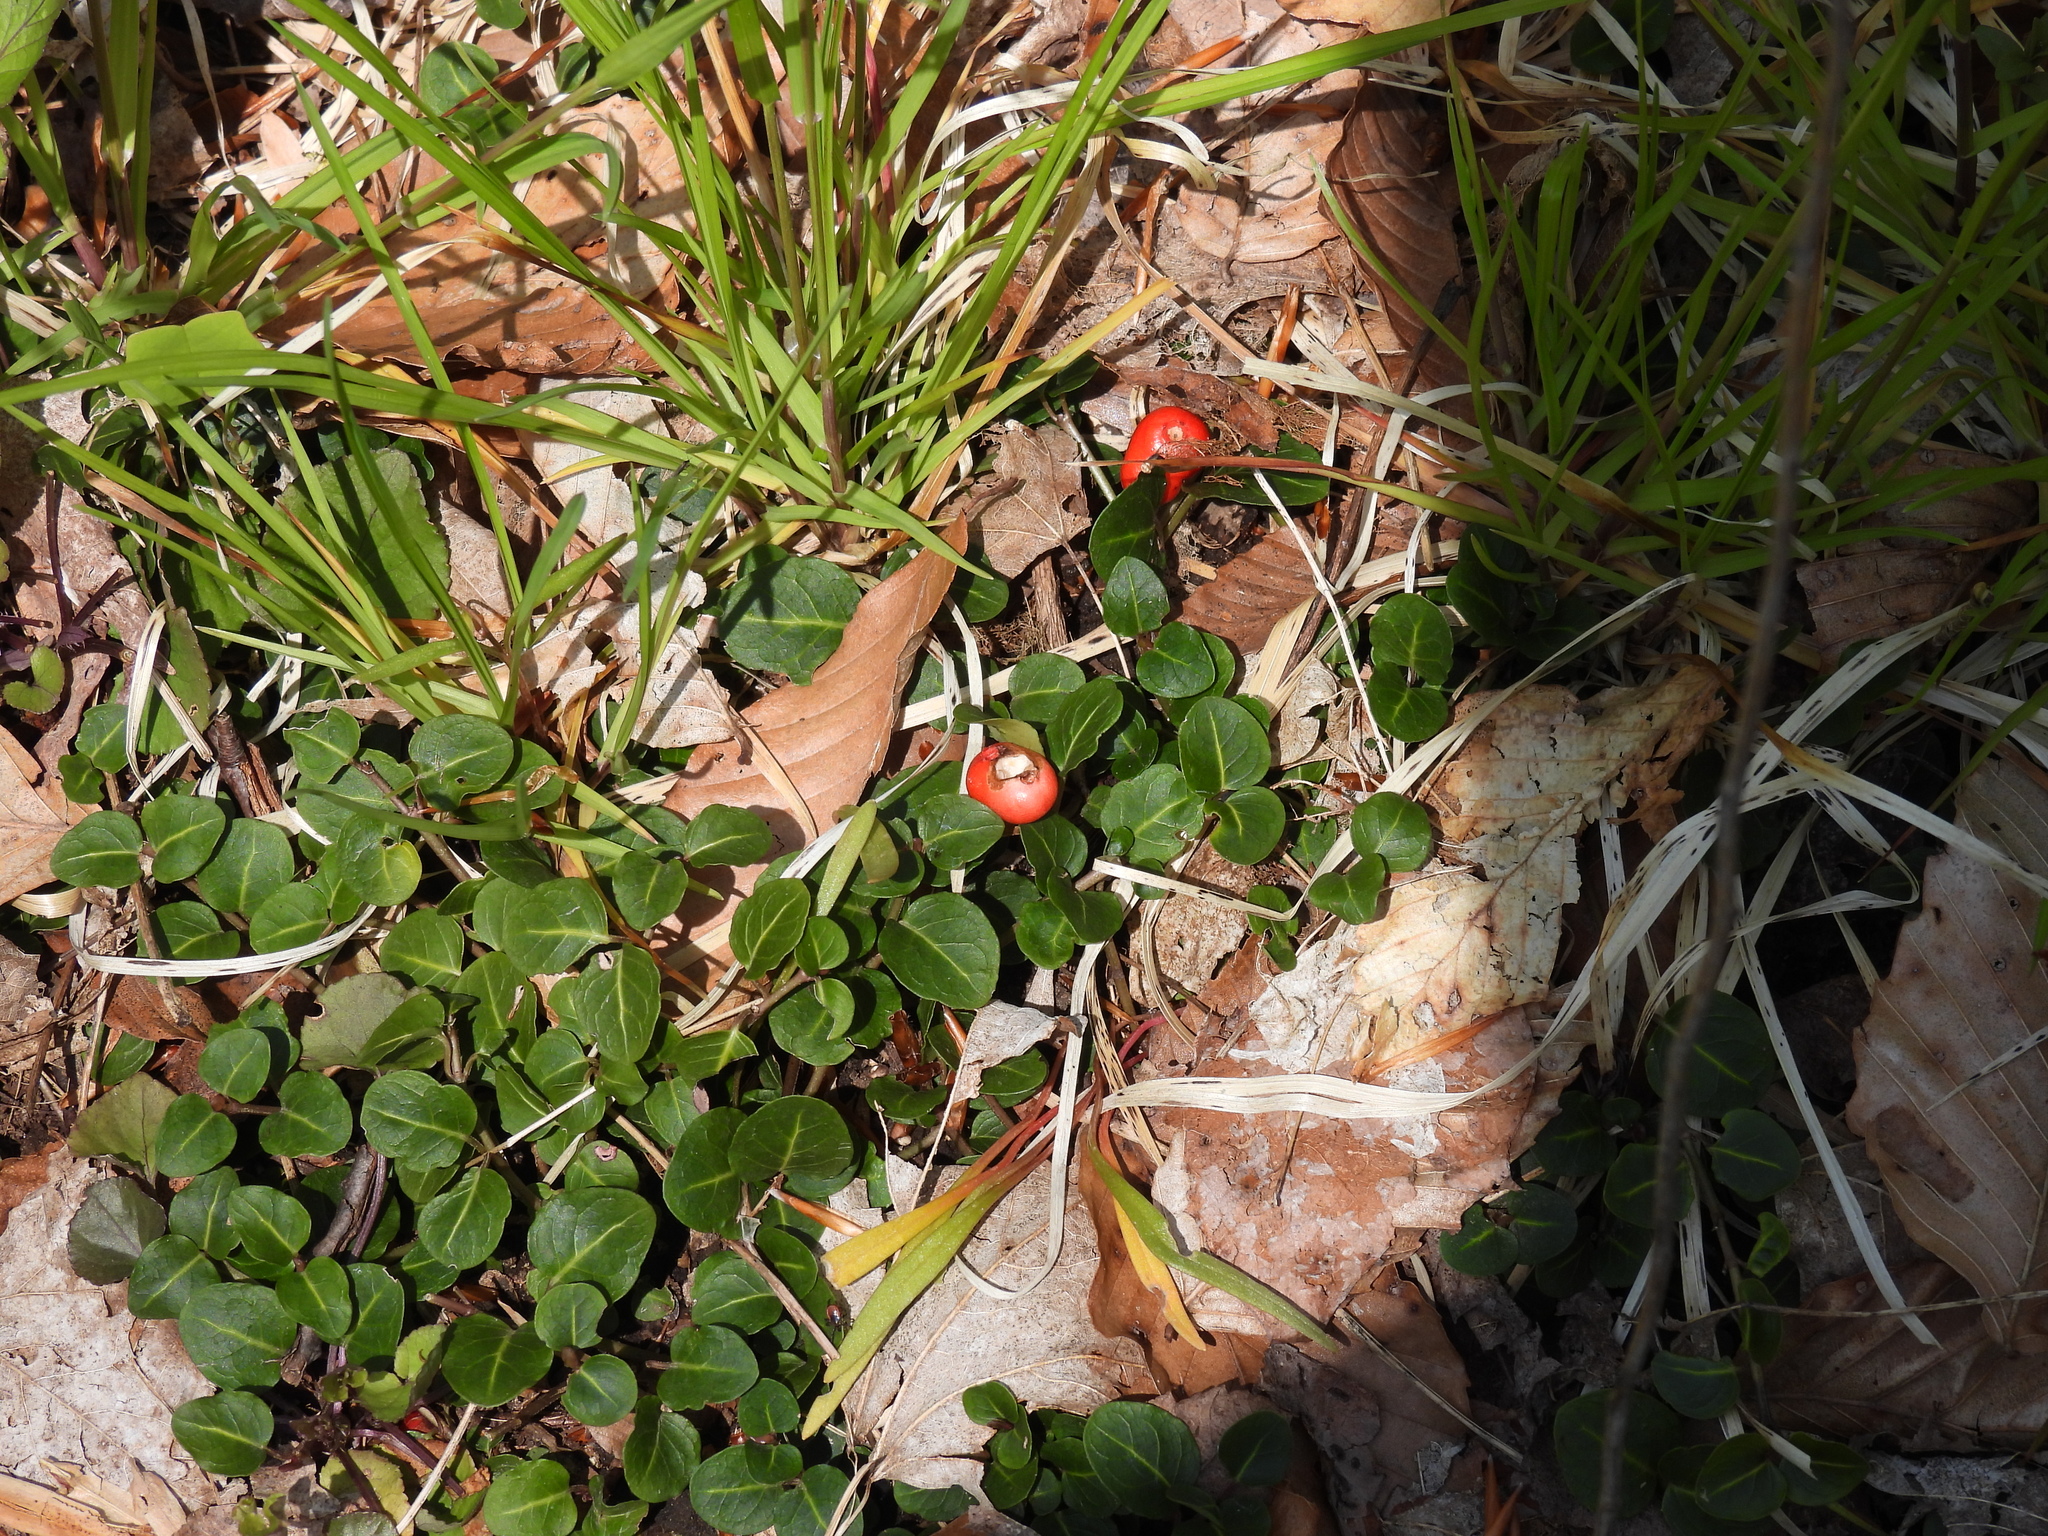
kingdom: Plantae
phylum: Tracheophyta
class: Magnoliopsida
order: Gentianales
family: Rubiaceae
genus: Mitchella
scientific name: Mitchella repens
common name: Partridge-berry
